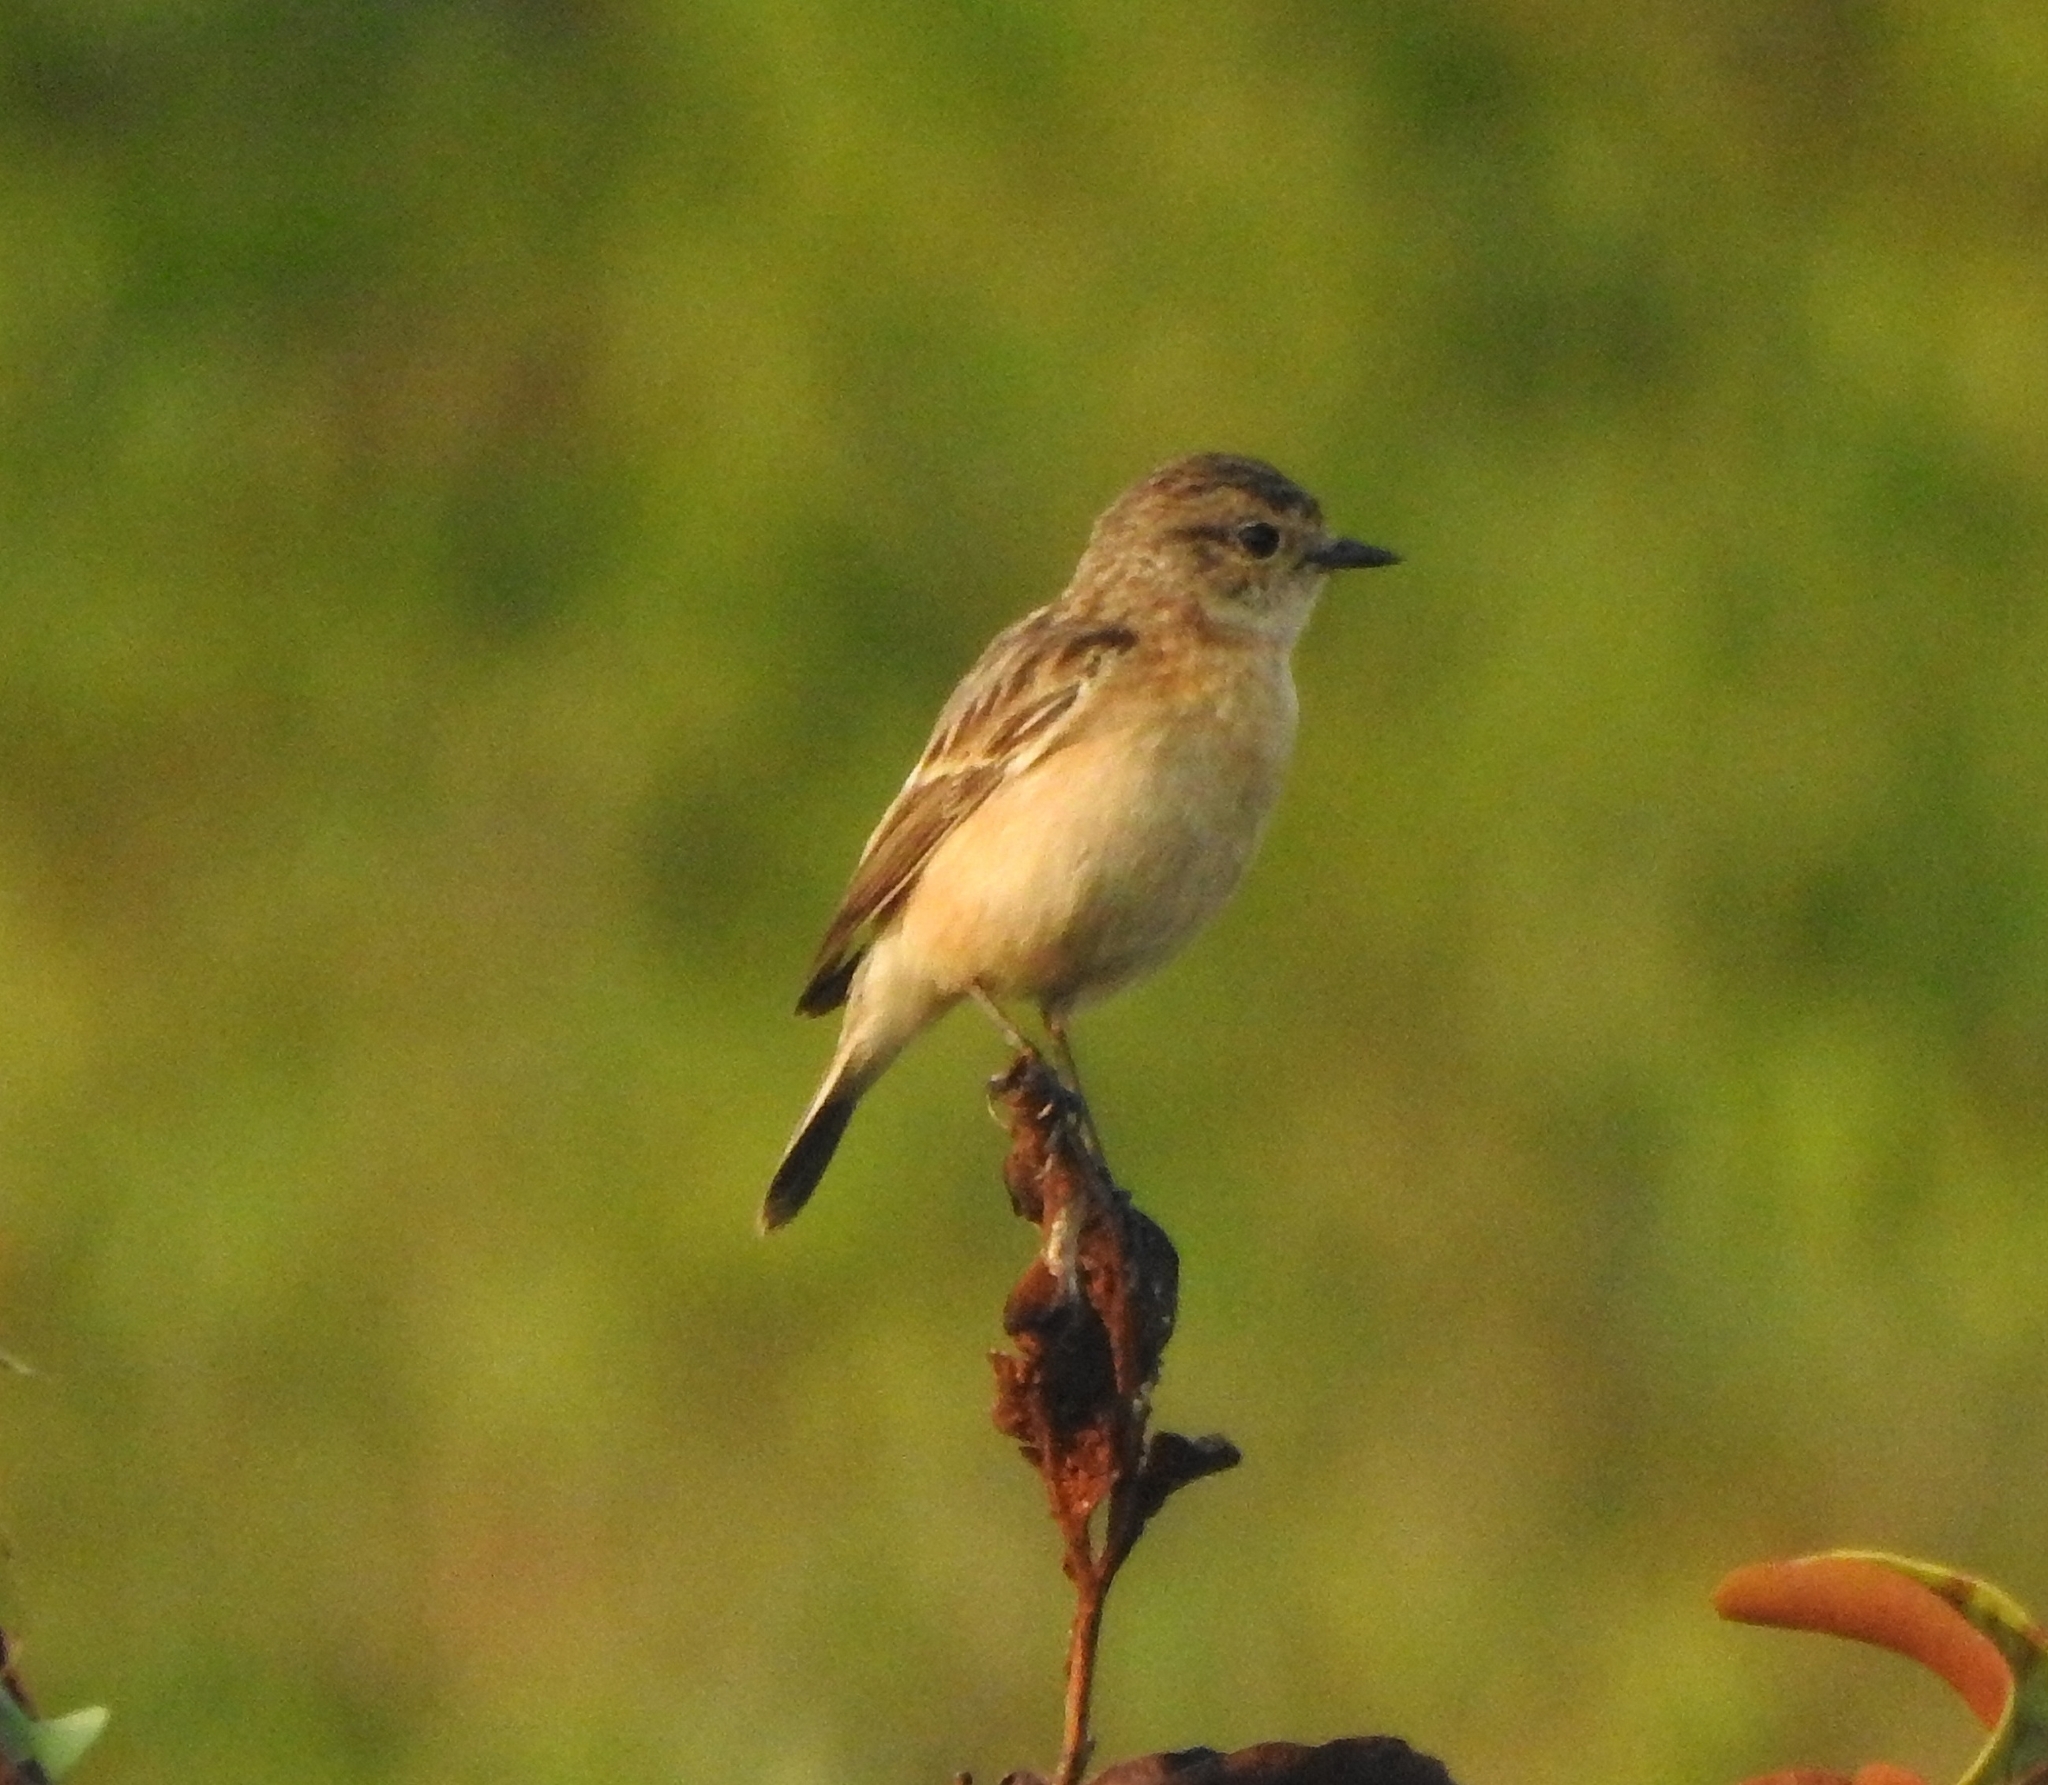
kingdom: Animalia
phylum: Chordata
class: Aves
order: Passeriformes
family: Muscicapidae
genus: Saxicola
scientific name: Saxicola maurus
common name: Siberian stonechat
